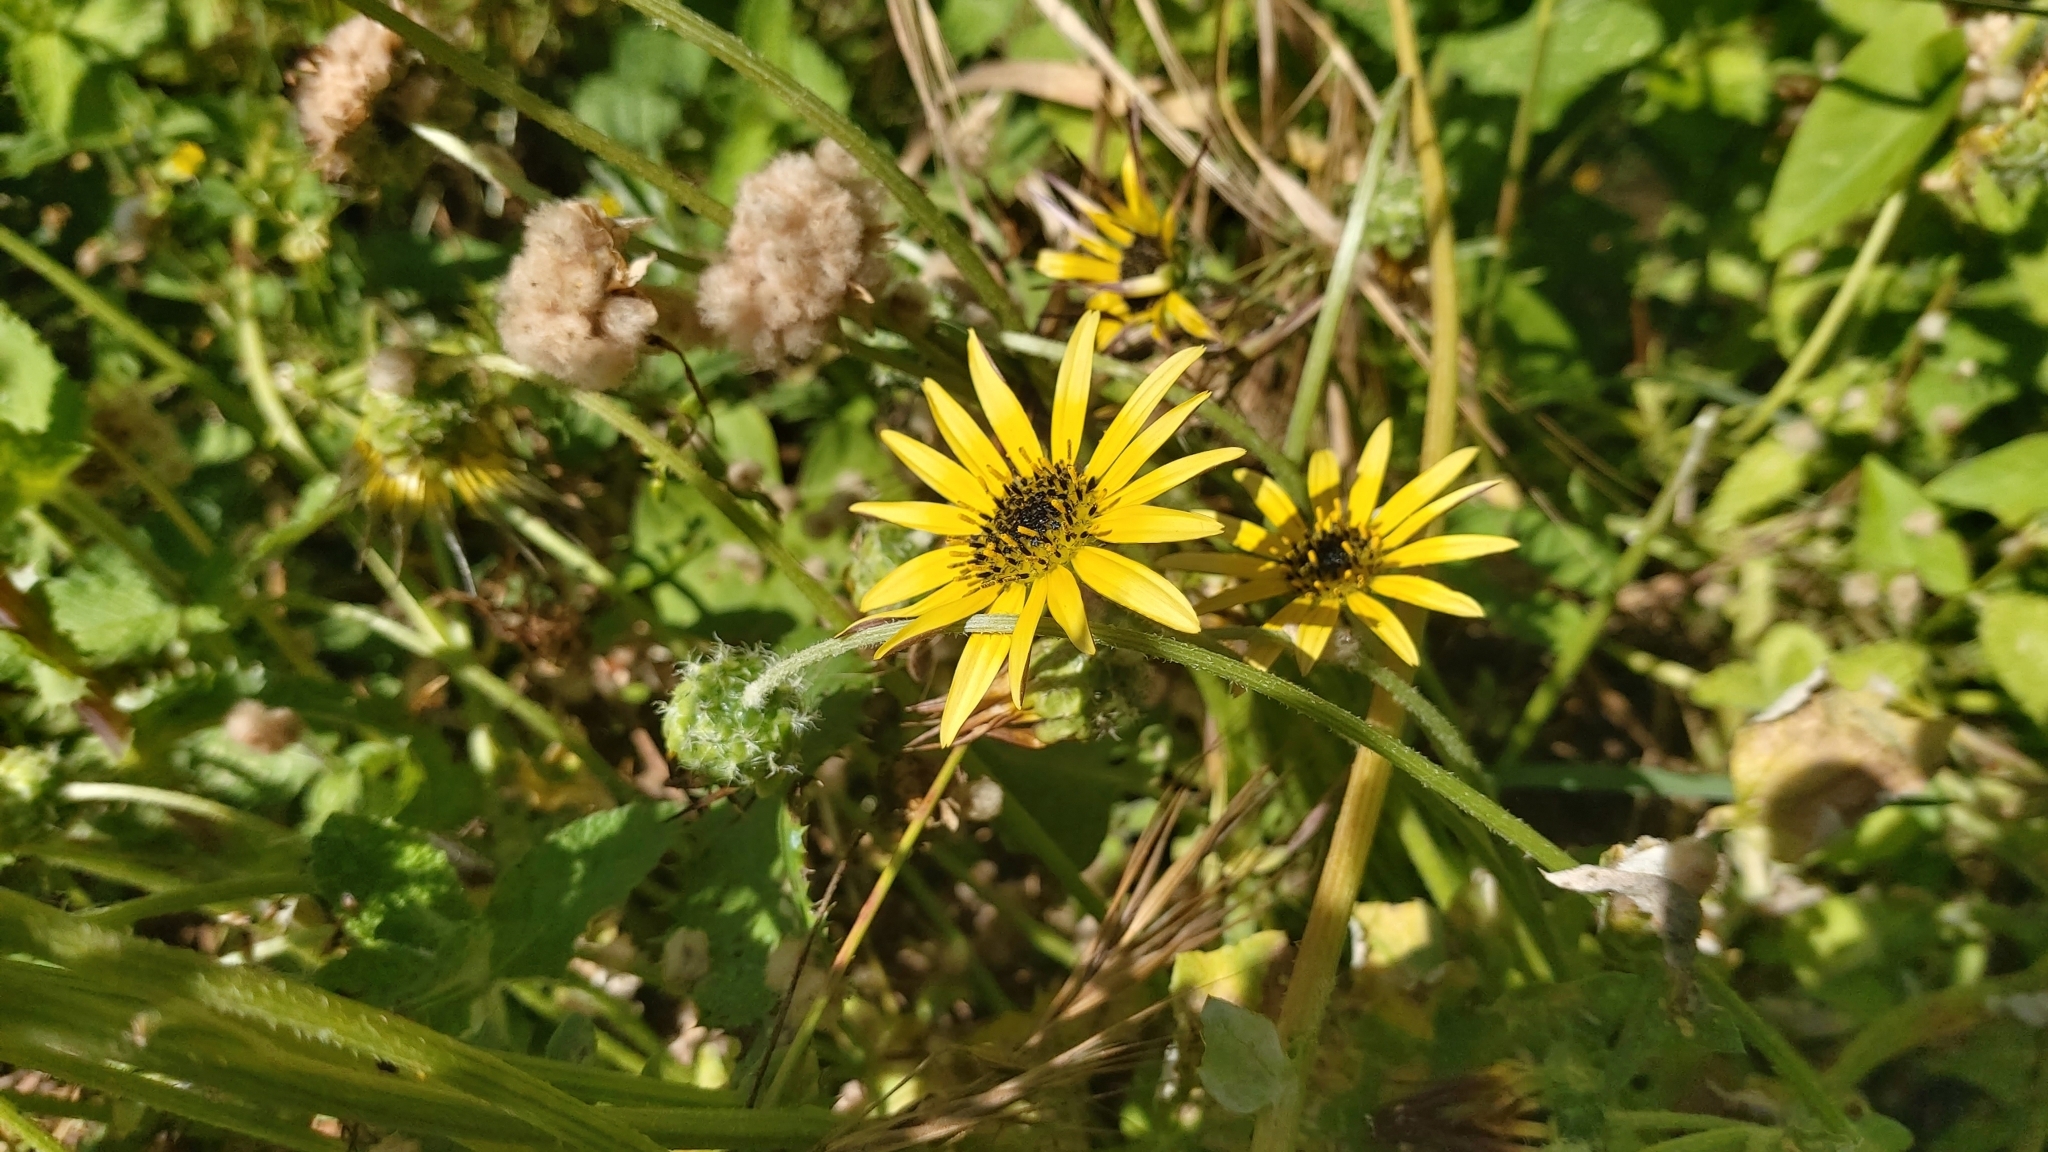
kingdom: Plantae
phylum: Tracheophyta
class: Magnoliopsida
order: Asterales
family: Asteraceae
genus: Arctotheca
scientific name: Arctotheca calendula
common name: Capeweed
